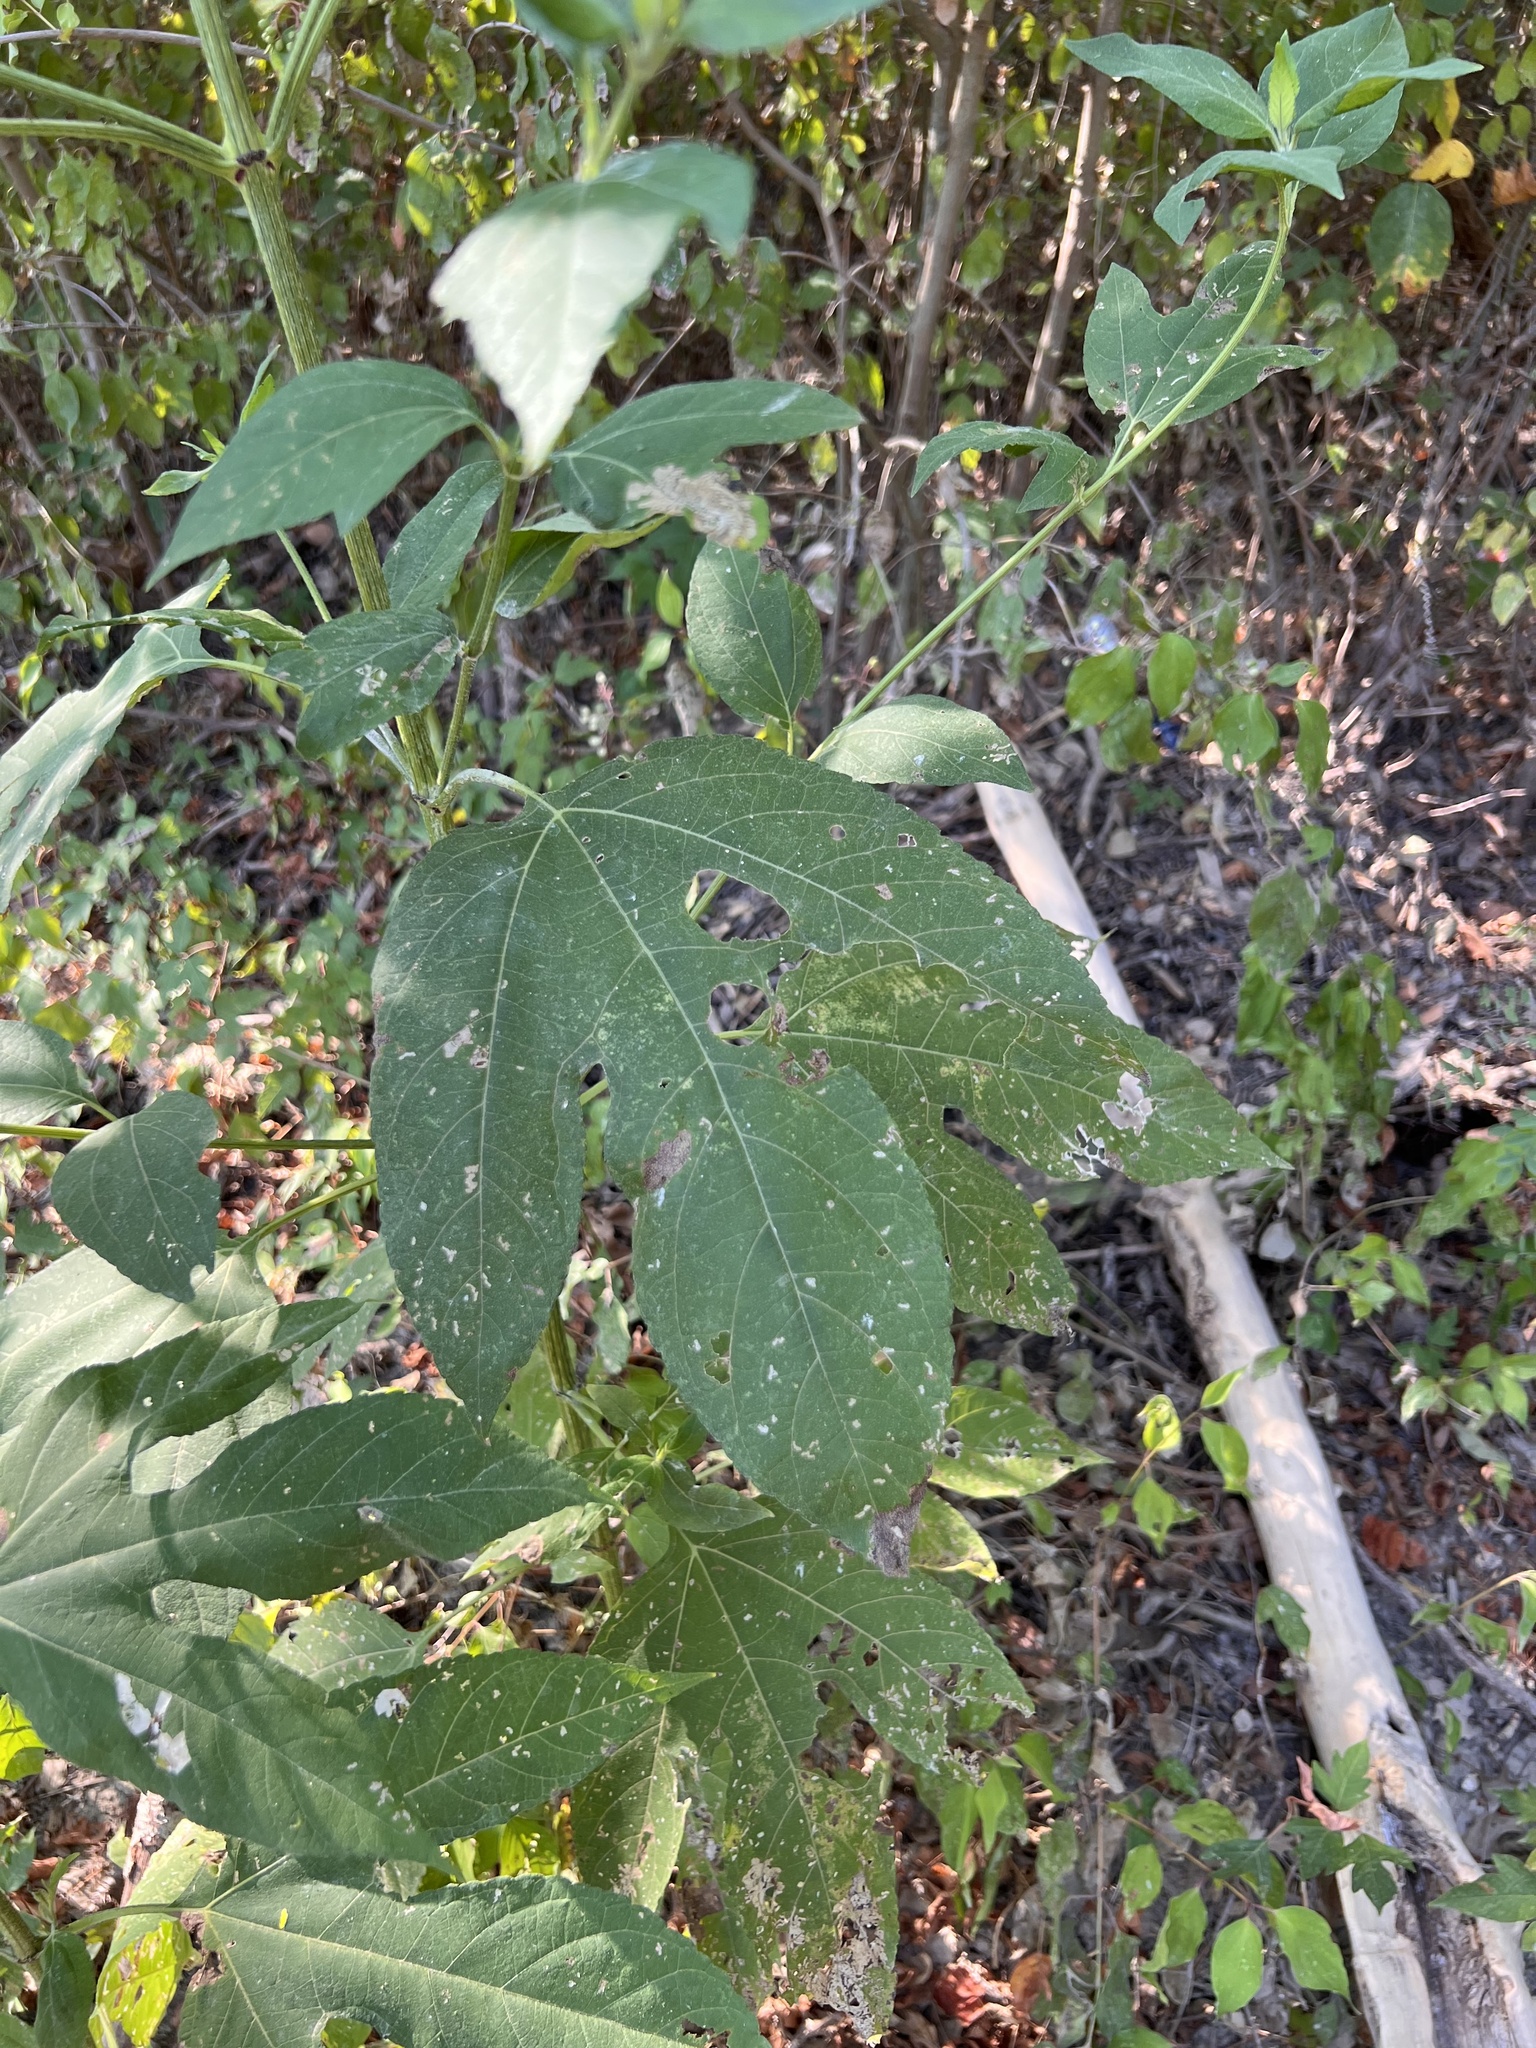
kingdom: Plantae
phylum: Tracheophyta
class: Magnoliopsida
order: Asterales
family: Asteraceae
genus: Ambrosia
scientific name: Ambrosia trifida
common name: Giant ragweed
